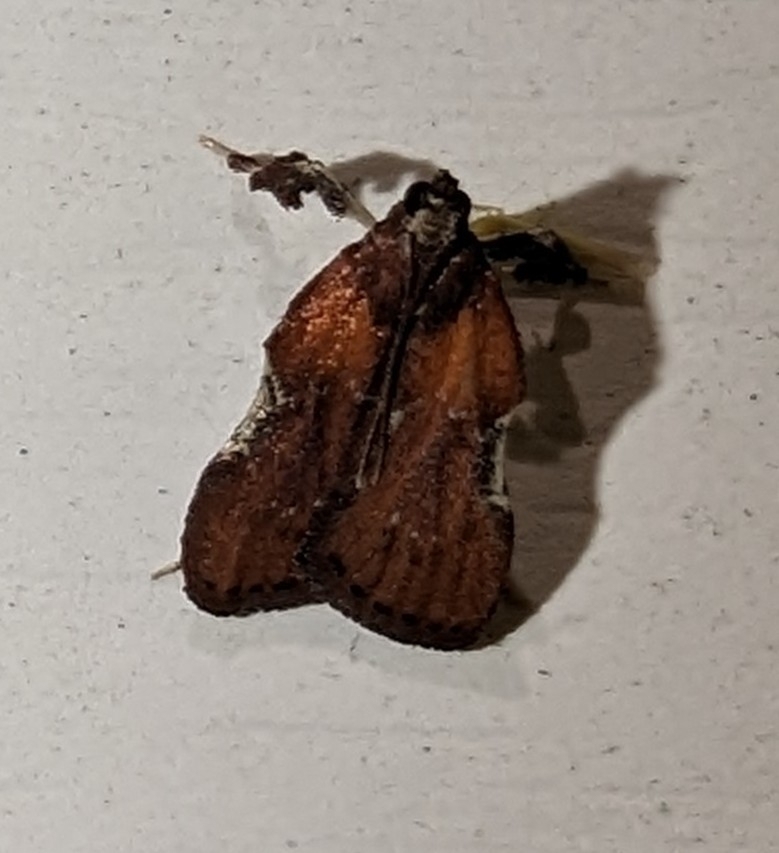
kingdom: Animalia
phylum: Arthropoda
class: Insecta
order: Lepidoptera
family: Pyralidae
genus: Galasa
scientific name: Galasa nigrinodis
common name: Boxwood leaftier moth
